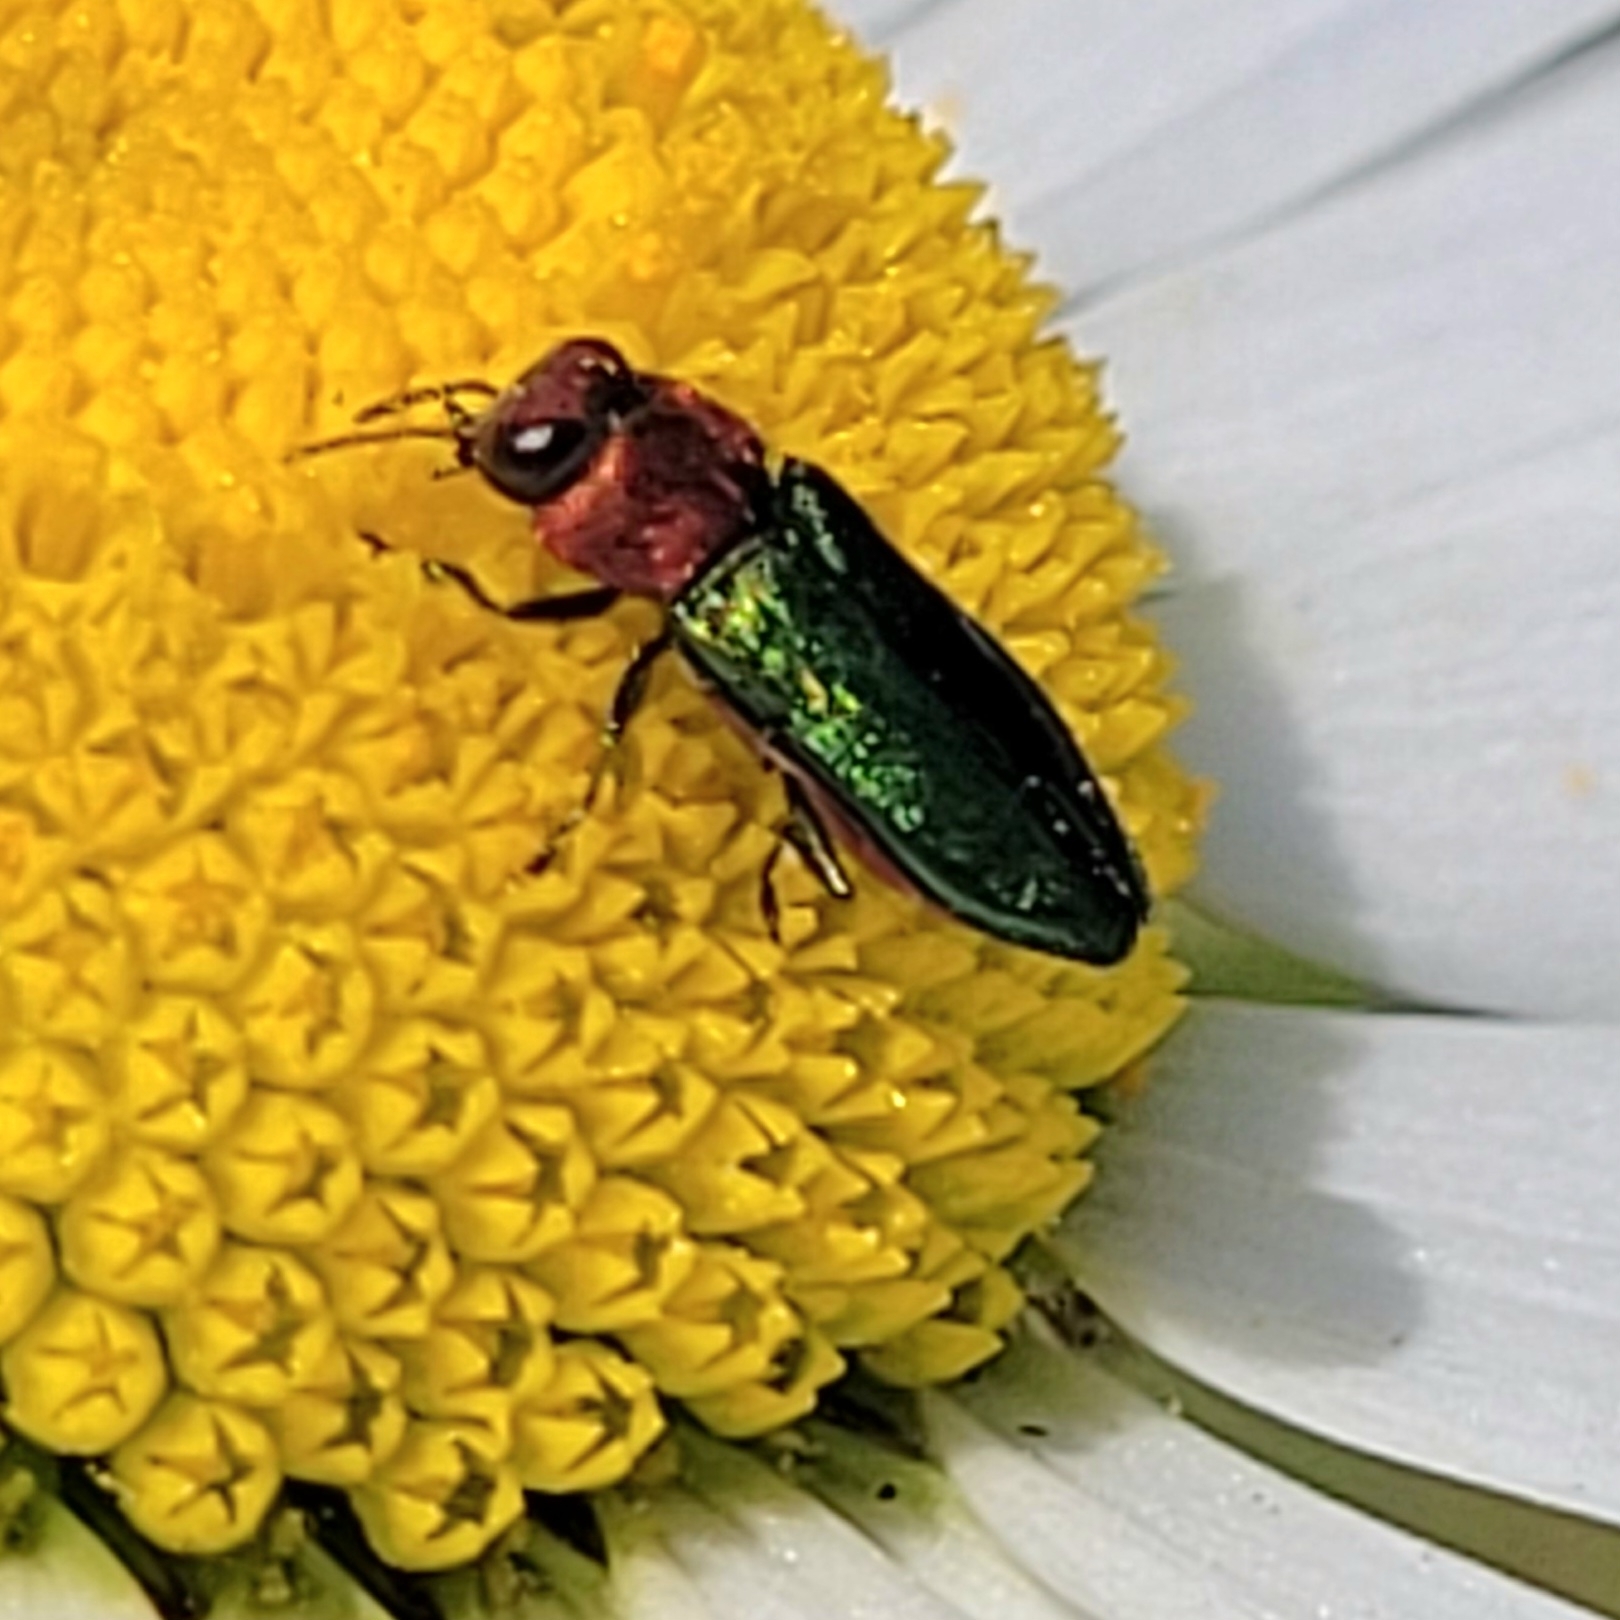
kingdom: Animalia
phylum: Arthropoda
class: Insecta
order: Coleoptera
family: Buprestidae
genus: Anthaxia
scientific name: Anthaxia nitidula
